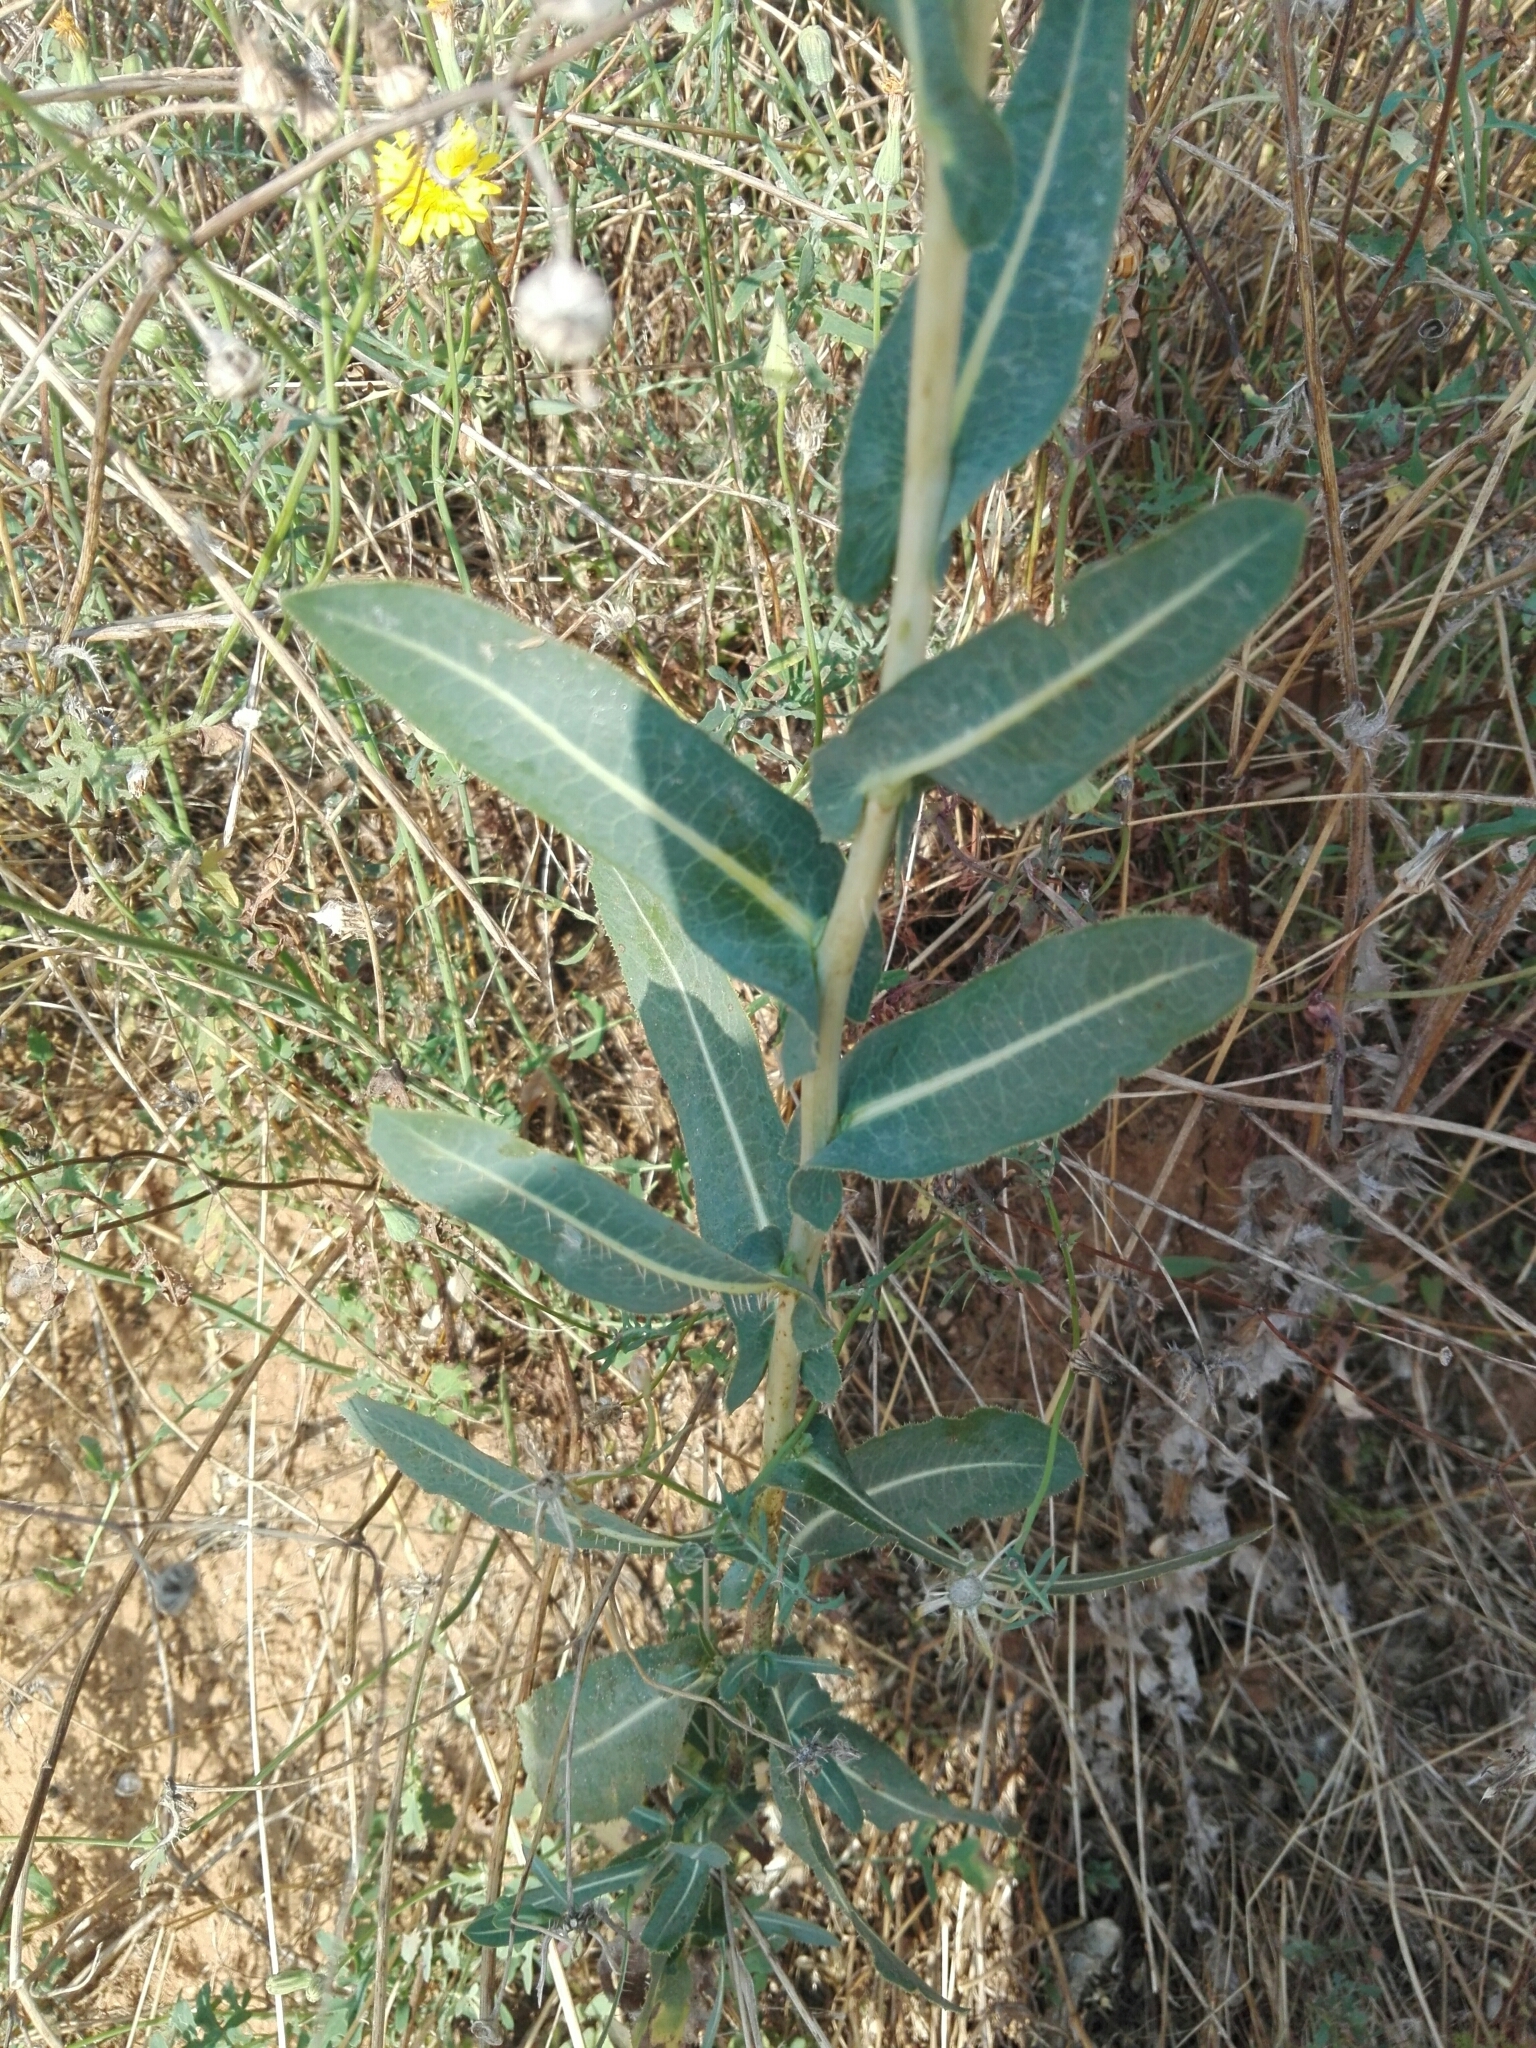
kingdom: Plantae
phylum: Tracheophyta
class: Magnoliopsida
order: Asterales
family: Asteraceae
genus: Lactuca
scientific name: Lactuca serriola
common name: Prickly lettuce
